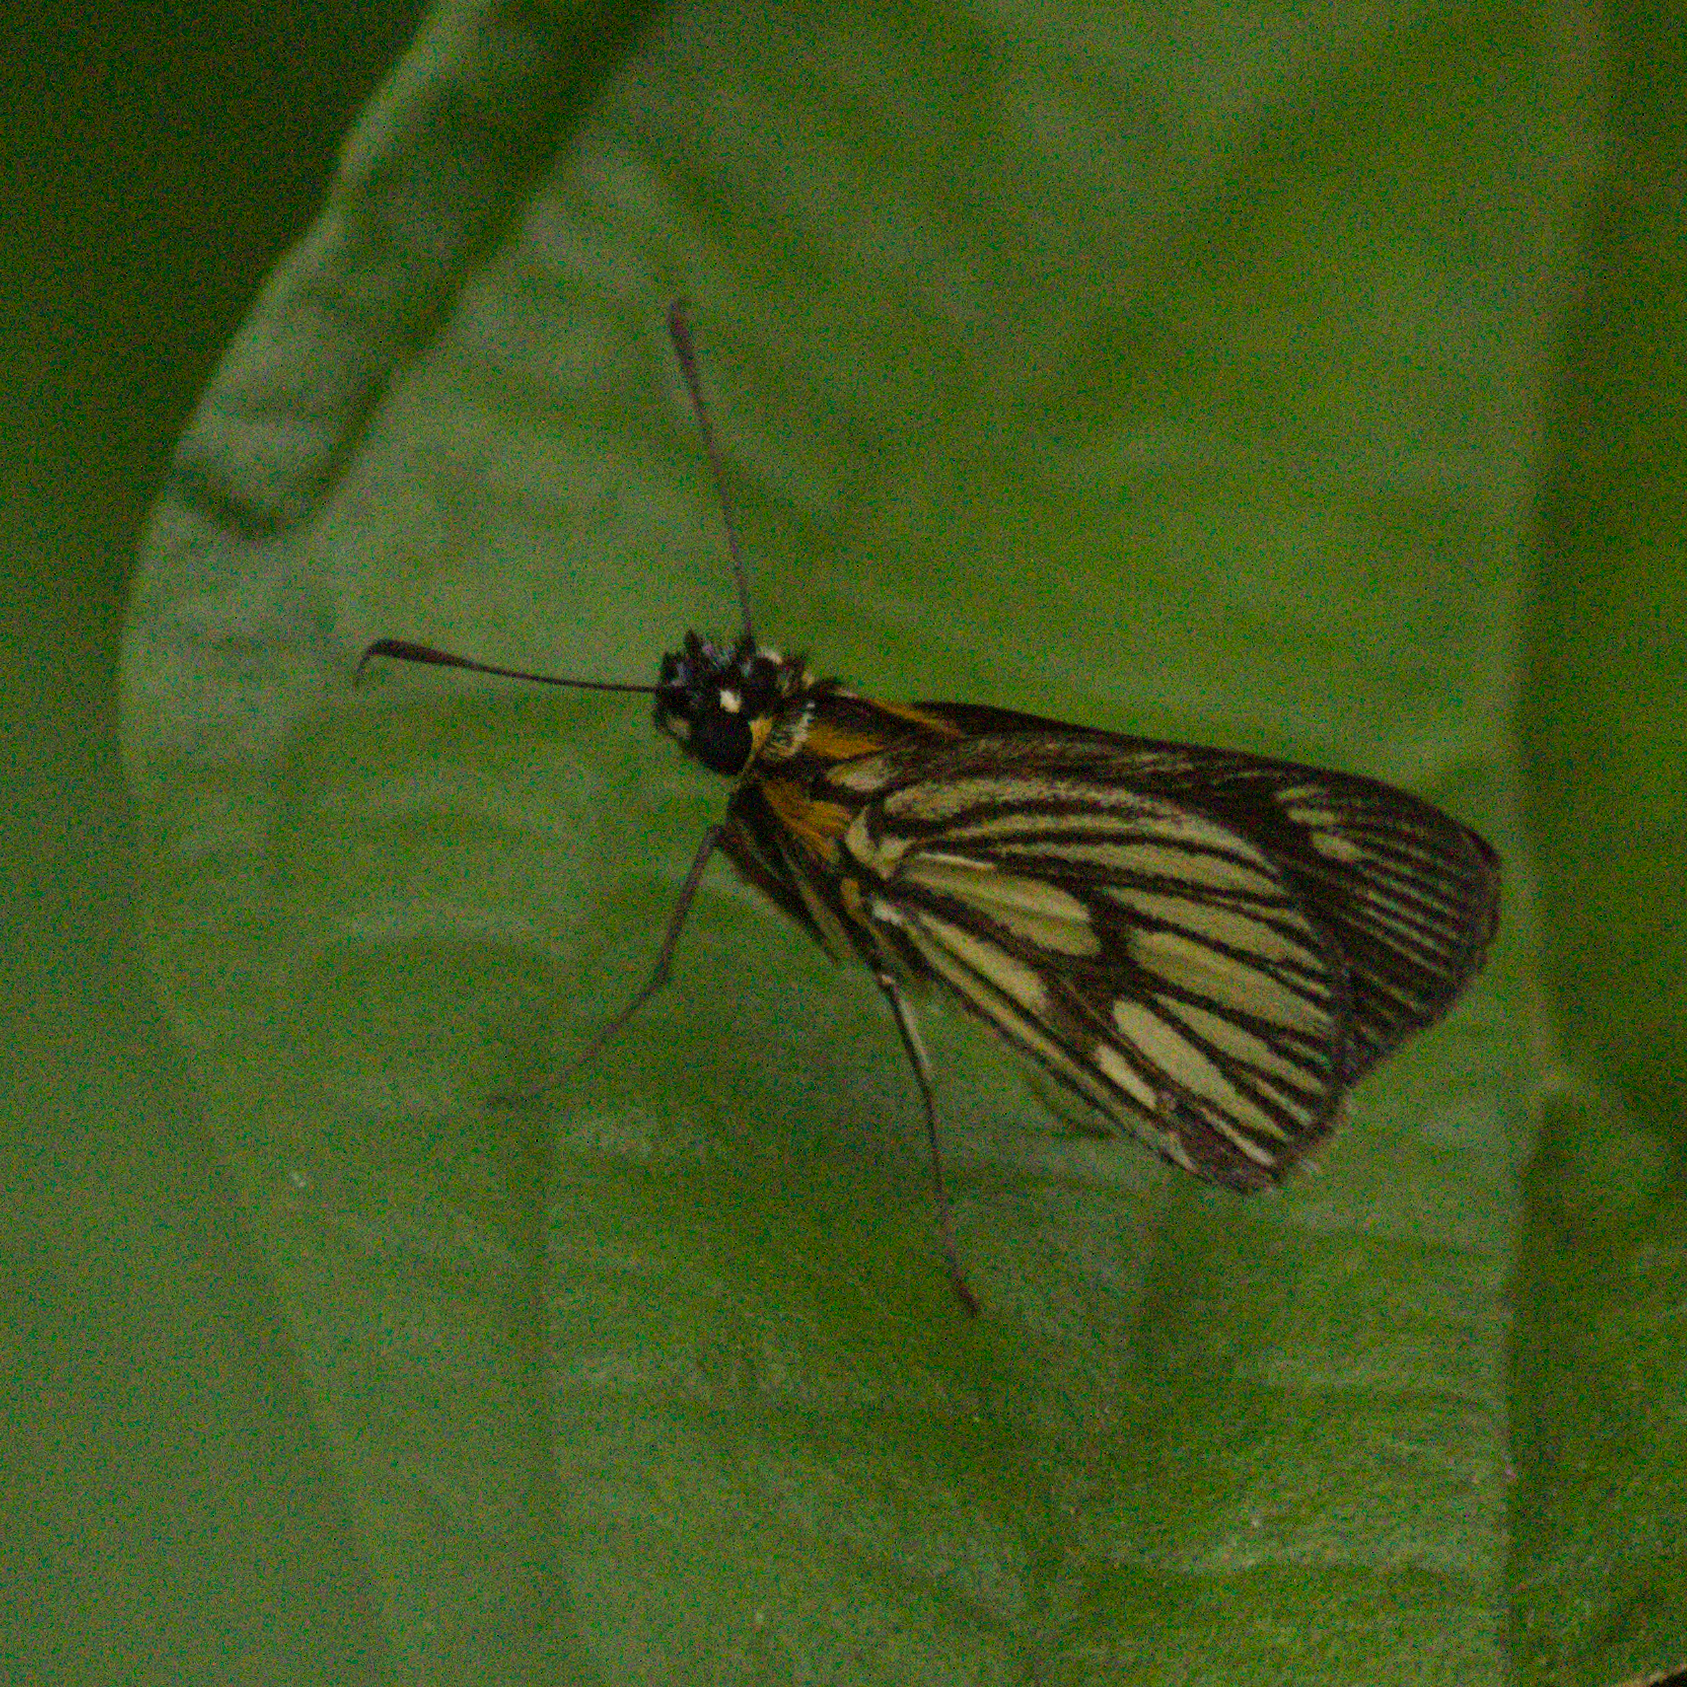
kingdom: Animalia
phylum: Arthropoda
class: Insecta
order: Lepidoptera
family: Hesperiidae
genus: Vehilius
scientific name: Vehilius clavicula
